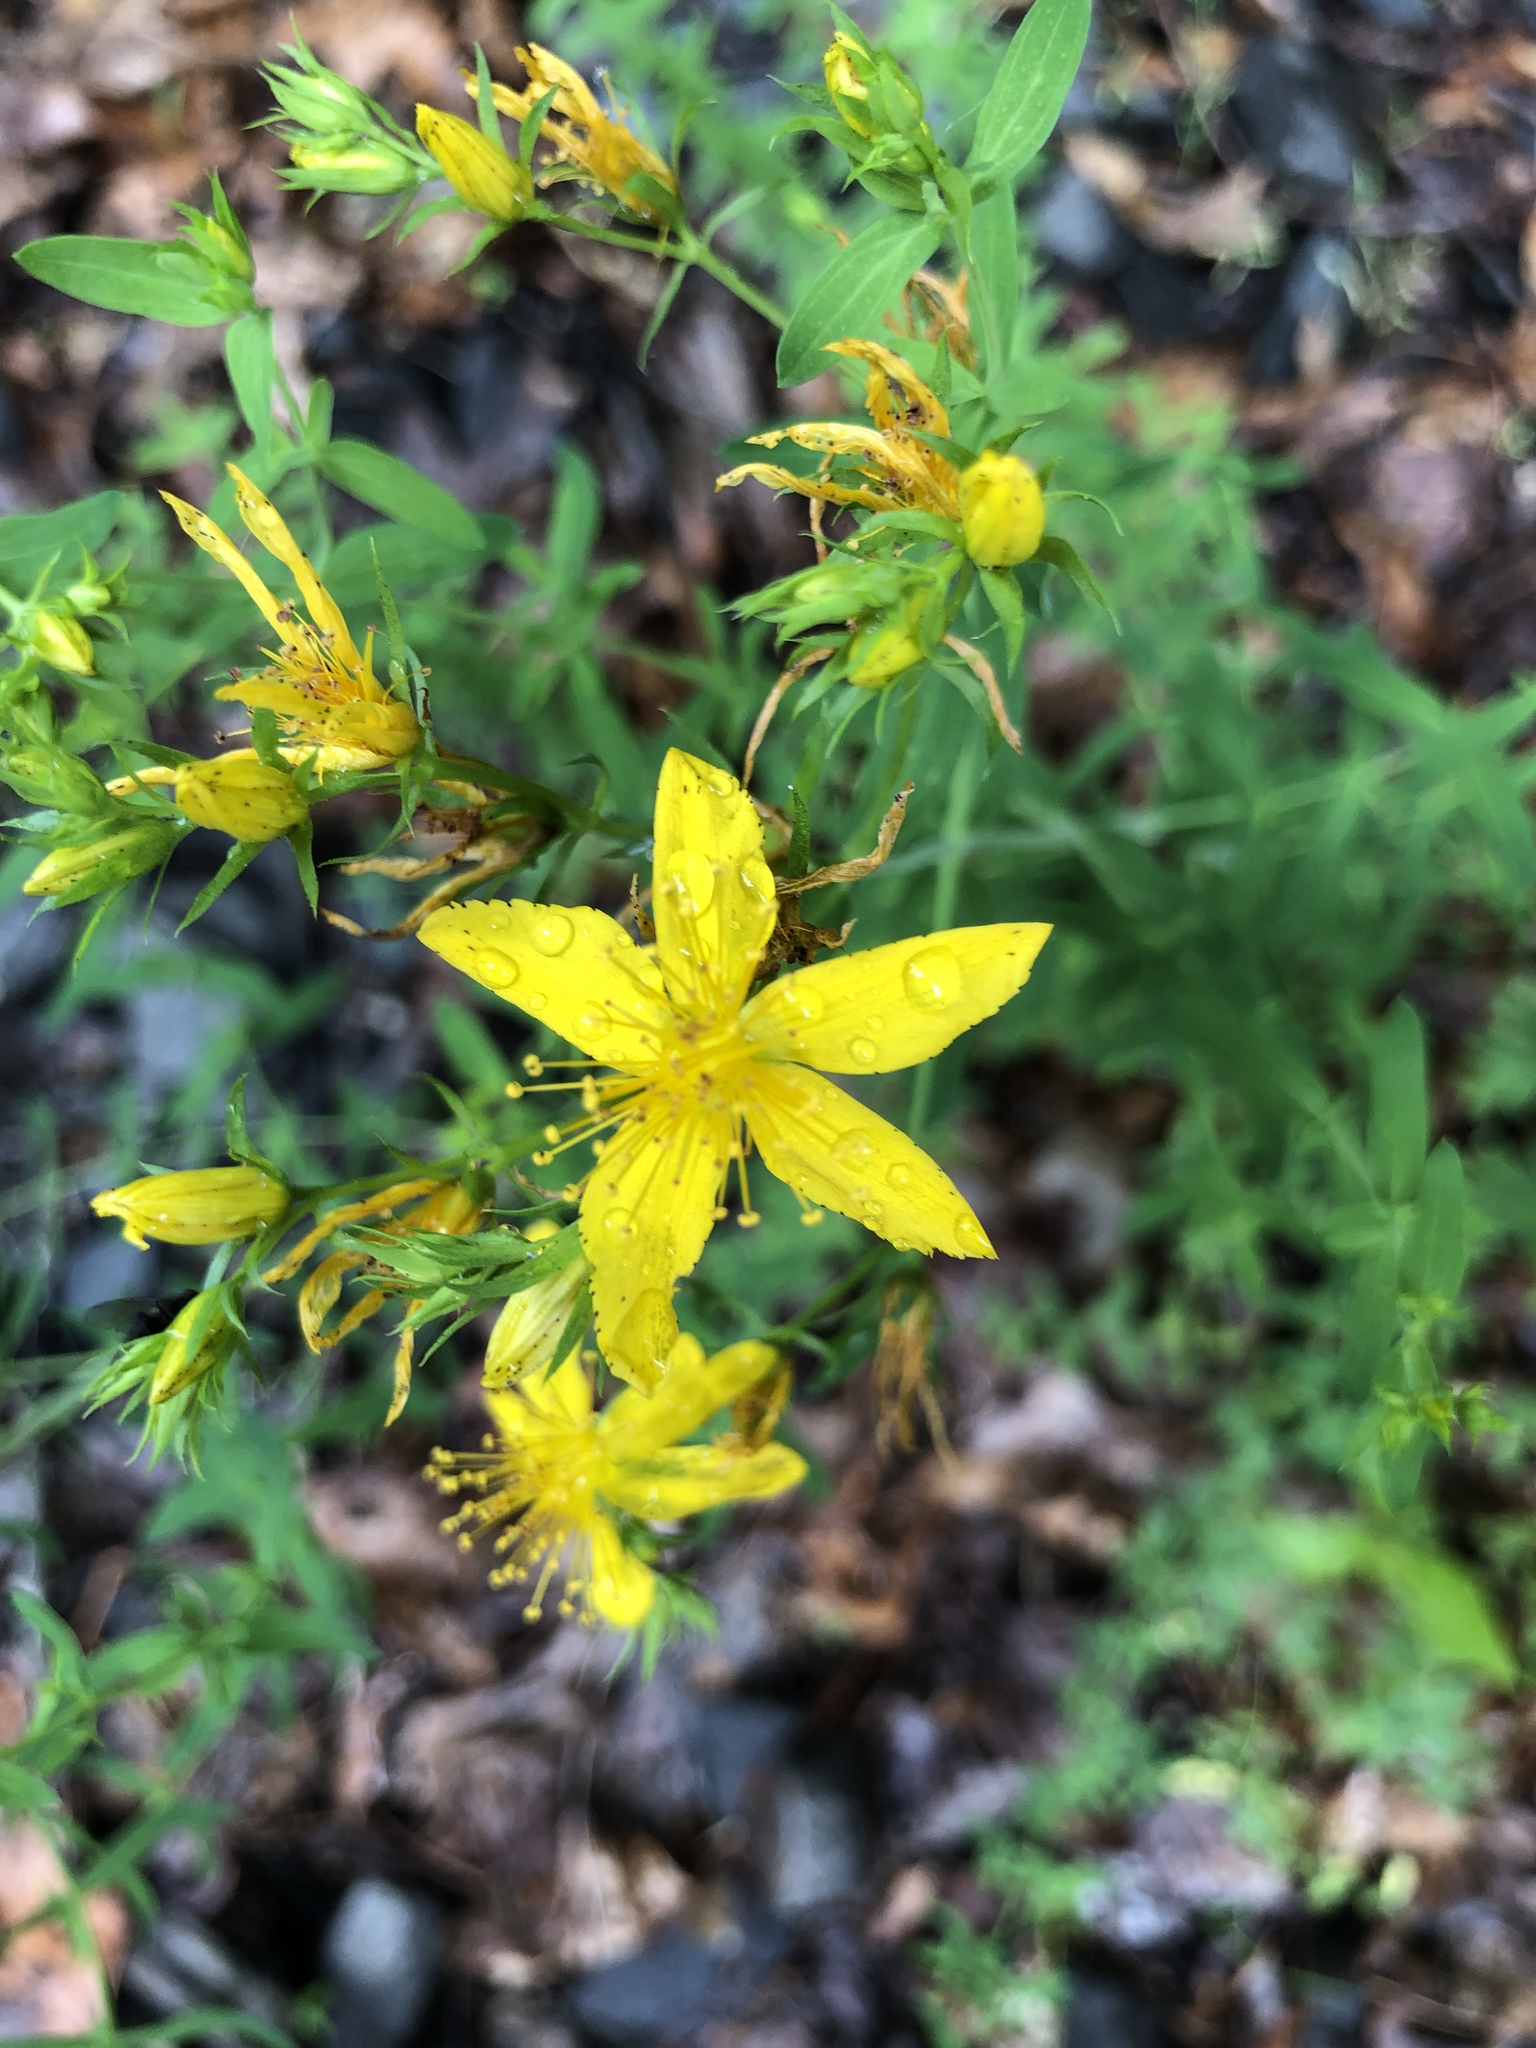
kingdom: Plantae
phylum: Tracheophyta
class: Magnoliopsida
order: Malpighiales
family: Hypericaceae
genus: Hypericum
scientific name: Hypericum perforatum
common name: Common st. johnswort
